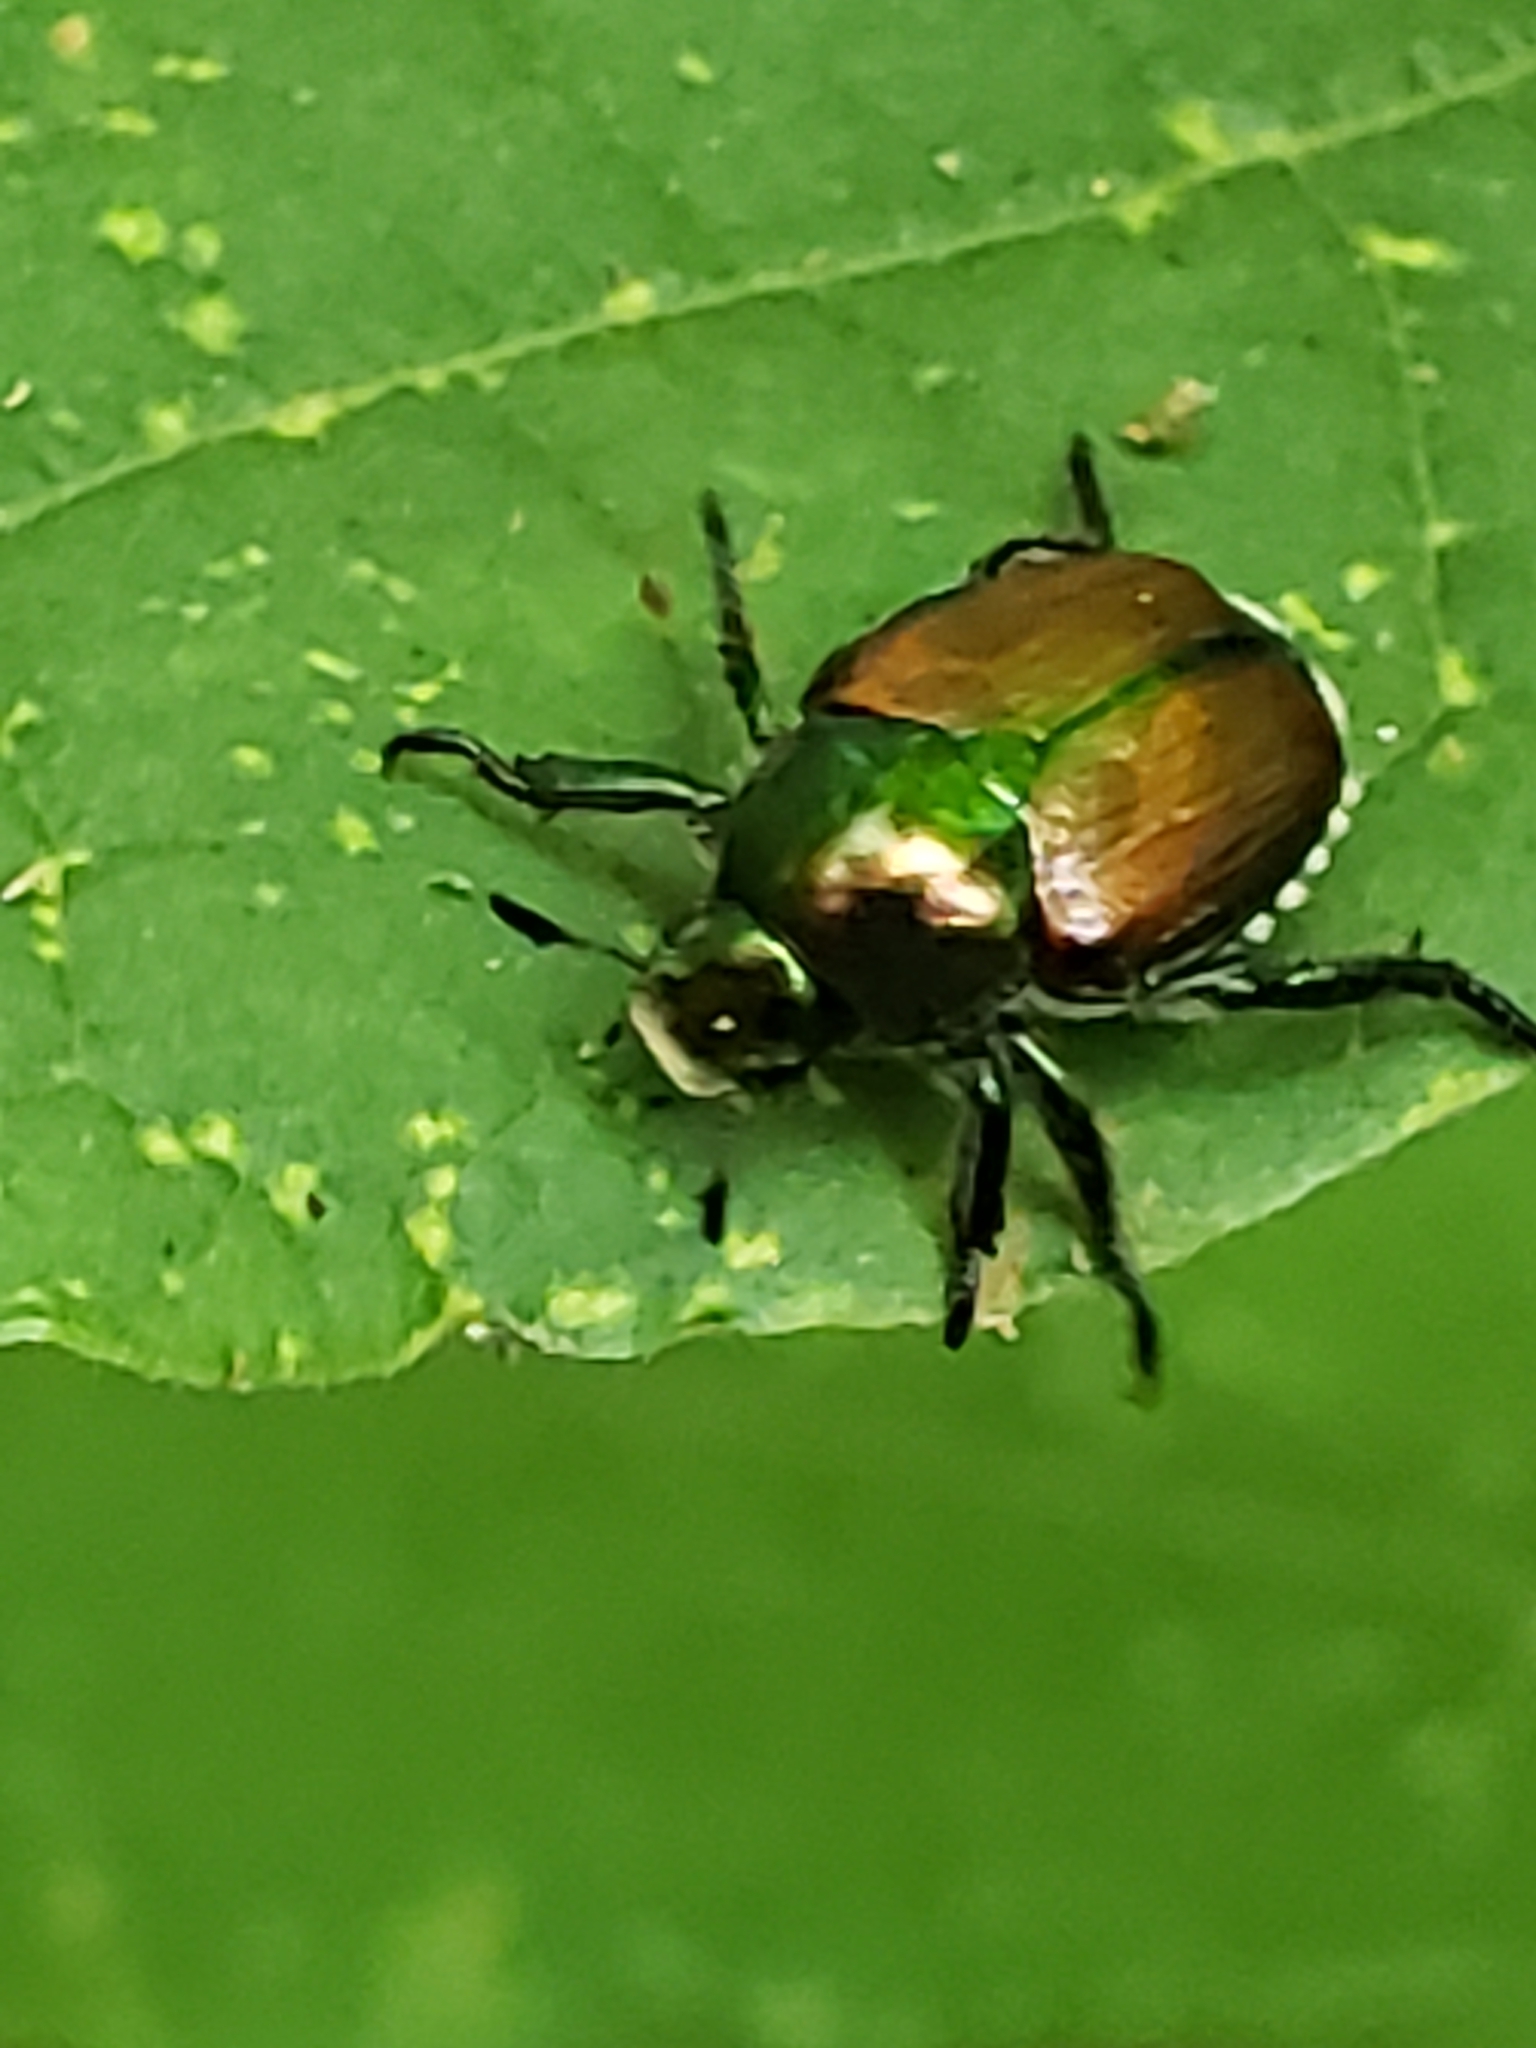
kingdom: Animalia
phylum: Arthropoda
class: Insecta
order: Coleoptera
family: Scarabaeidae
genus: Popillia
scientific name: Popillia japonica
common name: Japanese beetle
